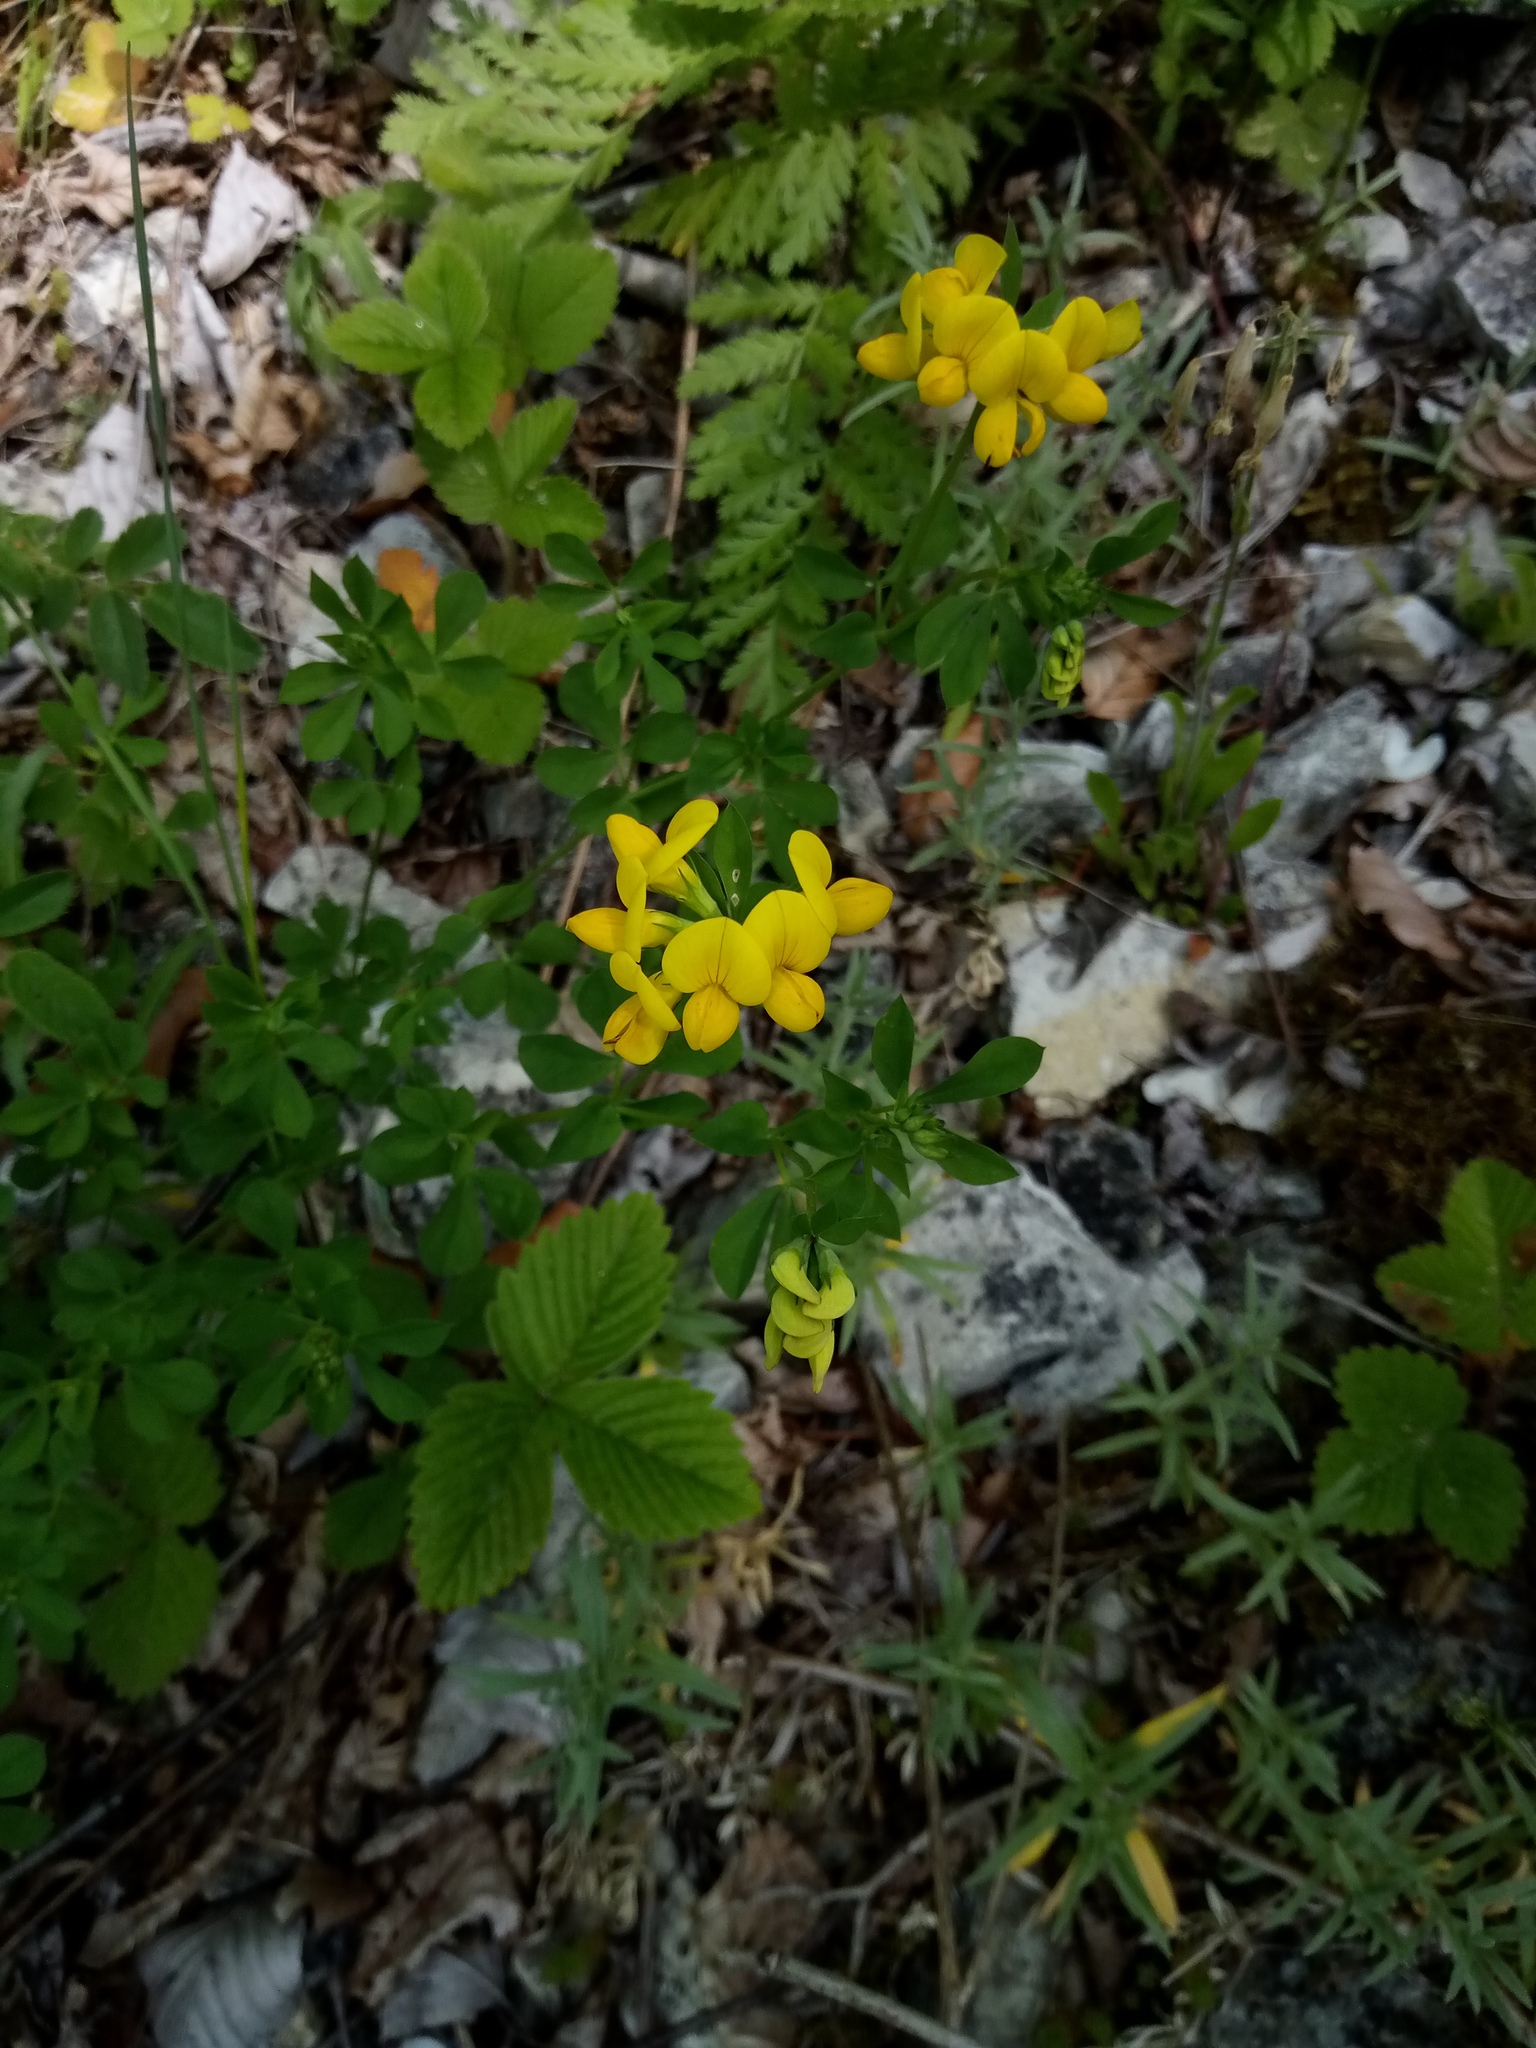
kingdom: Plantae
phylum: Tracheophyta
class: Magnoliopsida
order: Fabales
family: Fabaceae
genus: Lotus
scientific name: Lotus corniculatus
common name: Common bird's-foot-trefoil
